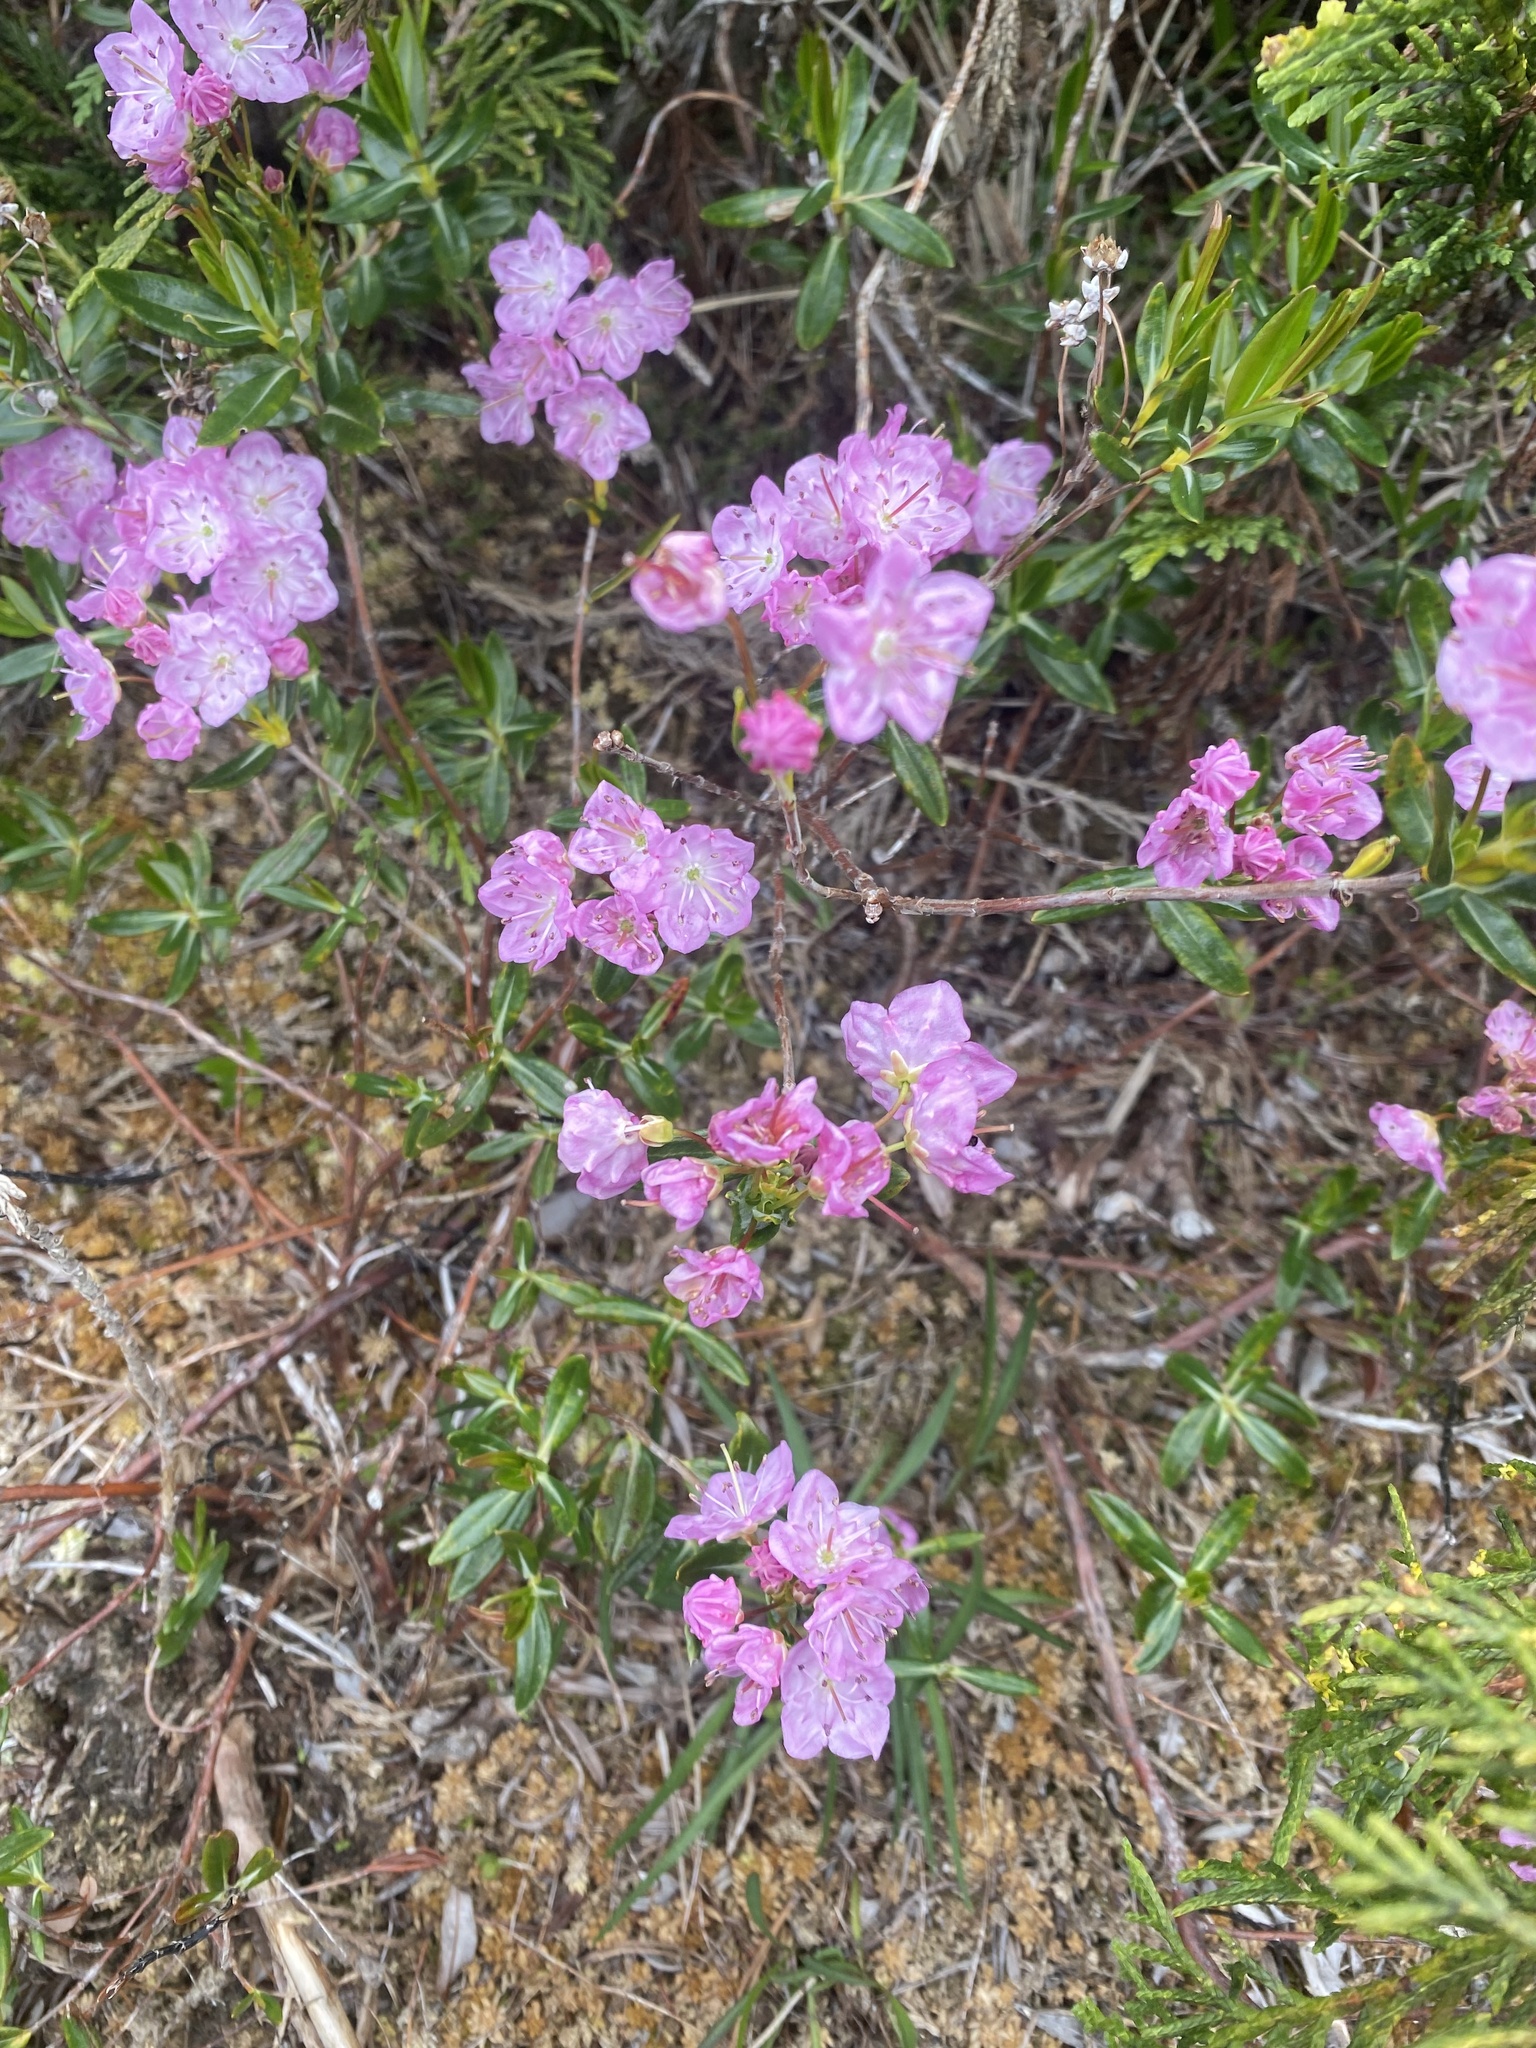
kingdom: Plantae
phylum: Tracheophyta
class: Magnoliopsida
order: Ericales
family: Ericaceae
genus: Kalmia
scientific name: Kalmia microphylla
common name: Alpine bog laurel
